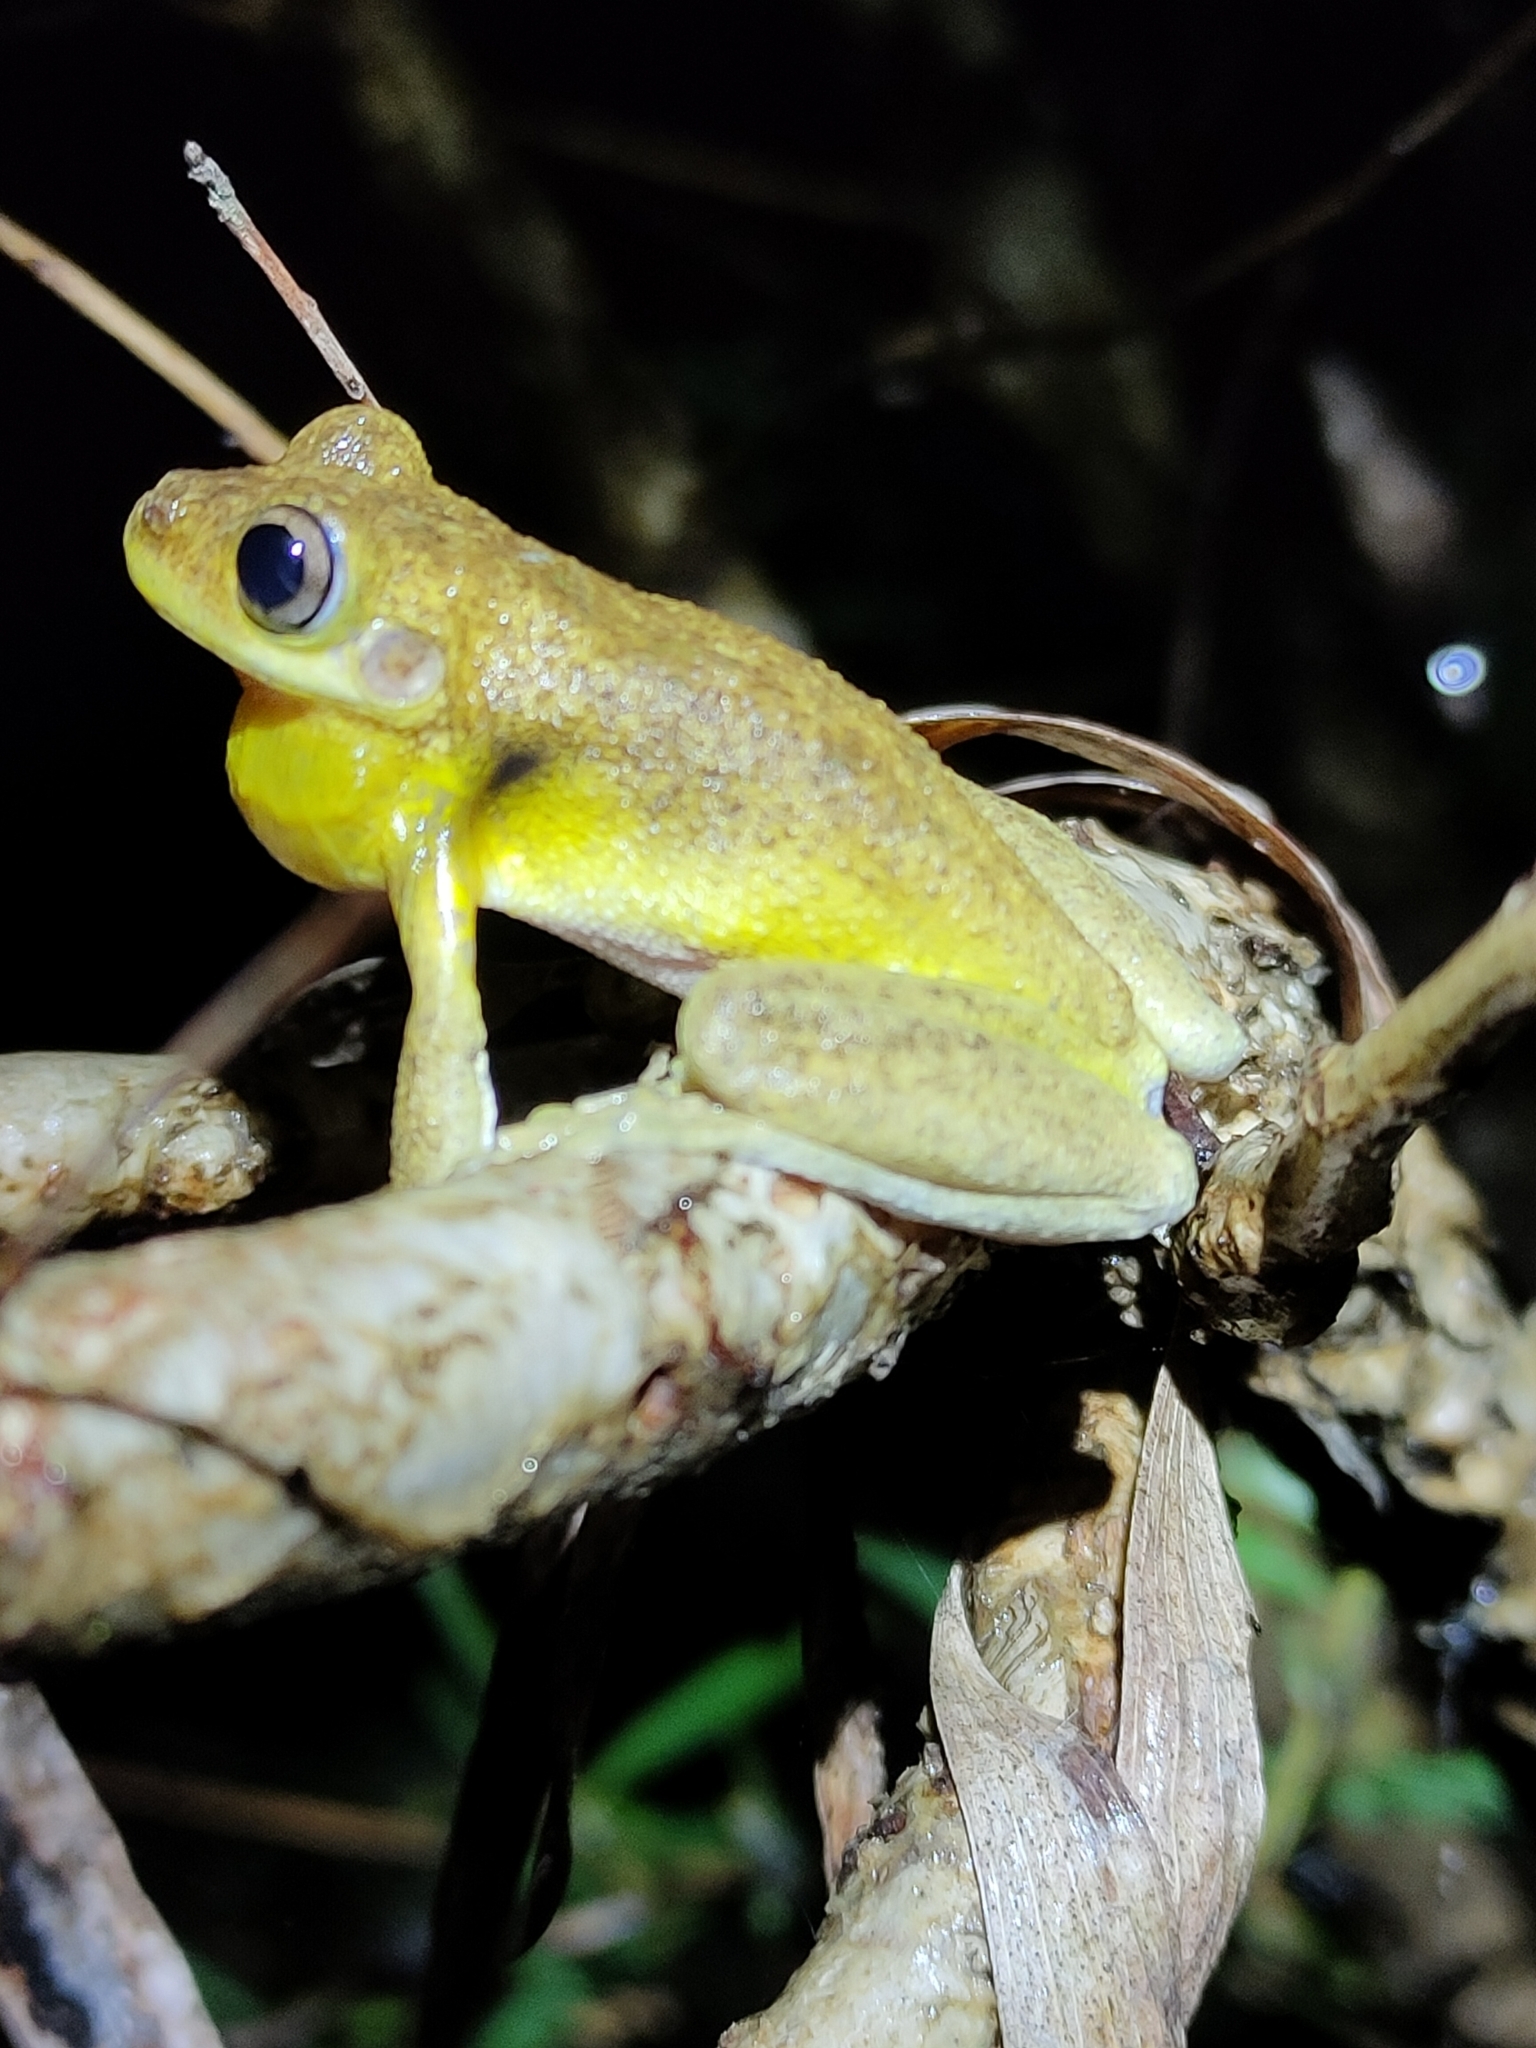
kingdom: Animalia
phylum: Chordata
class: Amphibia
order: Anura
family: Pelodryadidae
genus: Litoria
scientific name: Litoria tyleri
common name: Laughing tree frog
